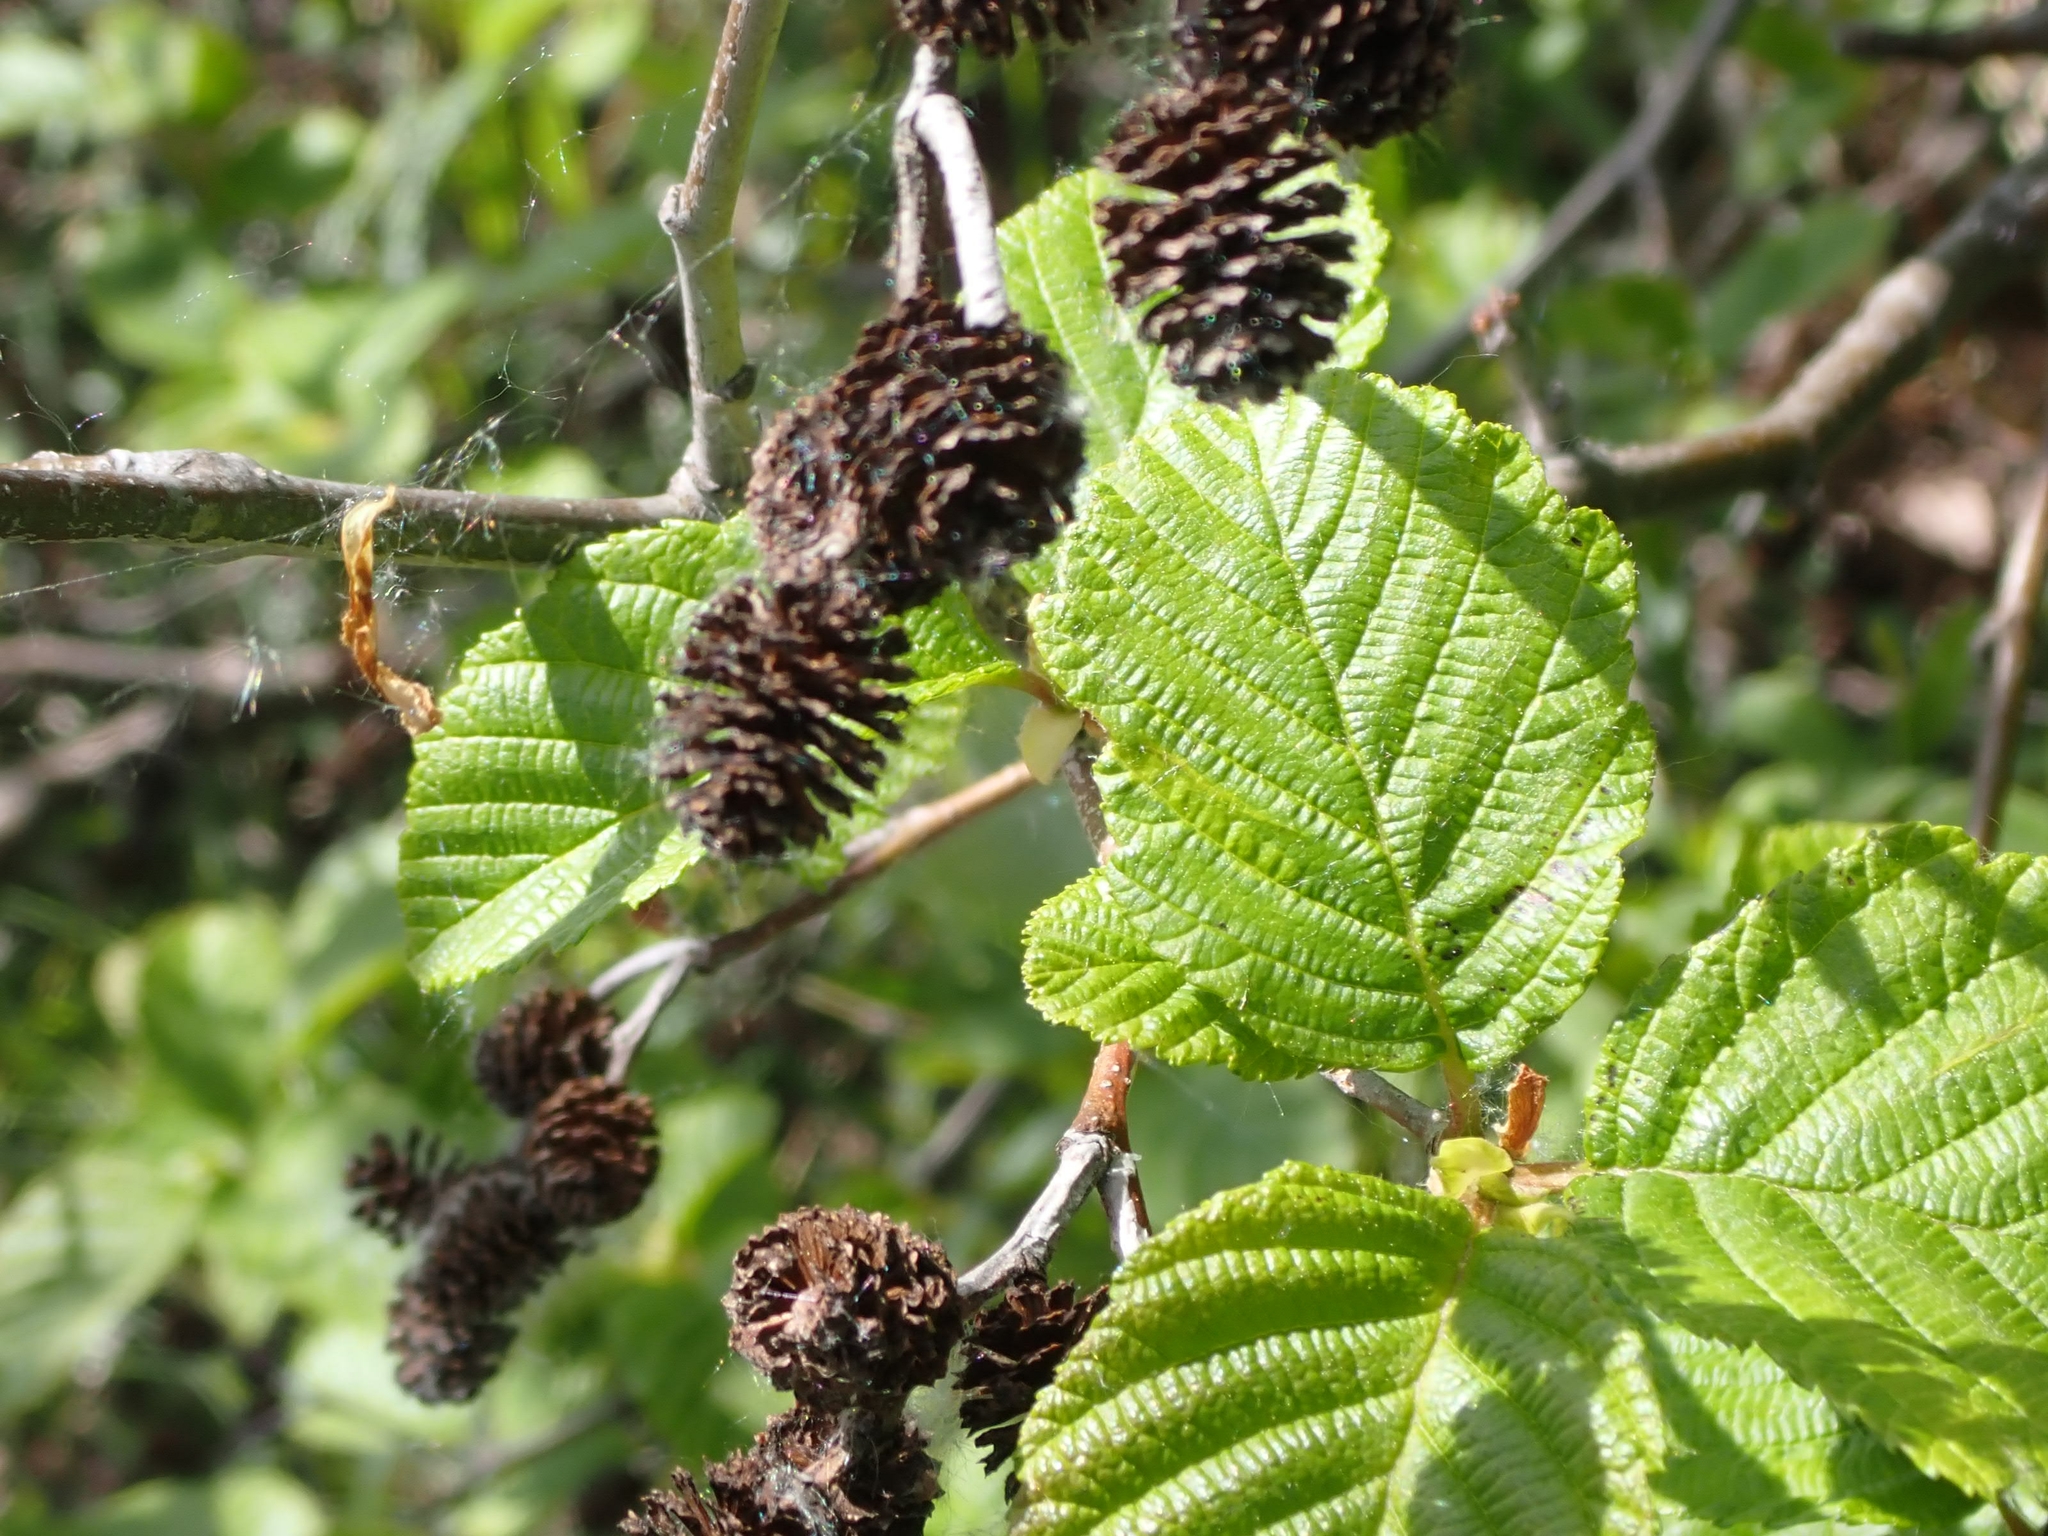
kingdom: Plantae
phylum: Tracheophyta
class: Magnoliopsida
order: Fagales
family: Betulaceae
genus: Alnus
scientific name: Alnus incana
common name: Grey alder
